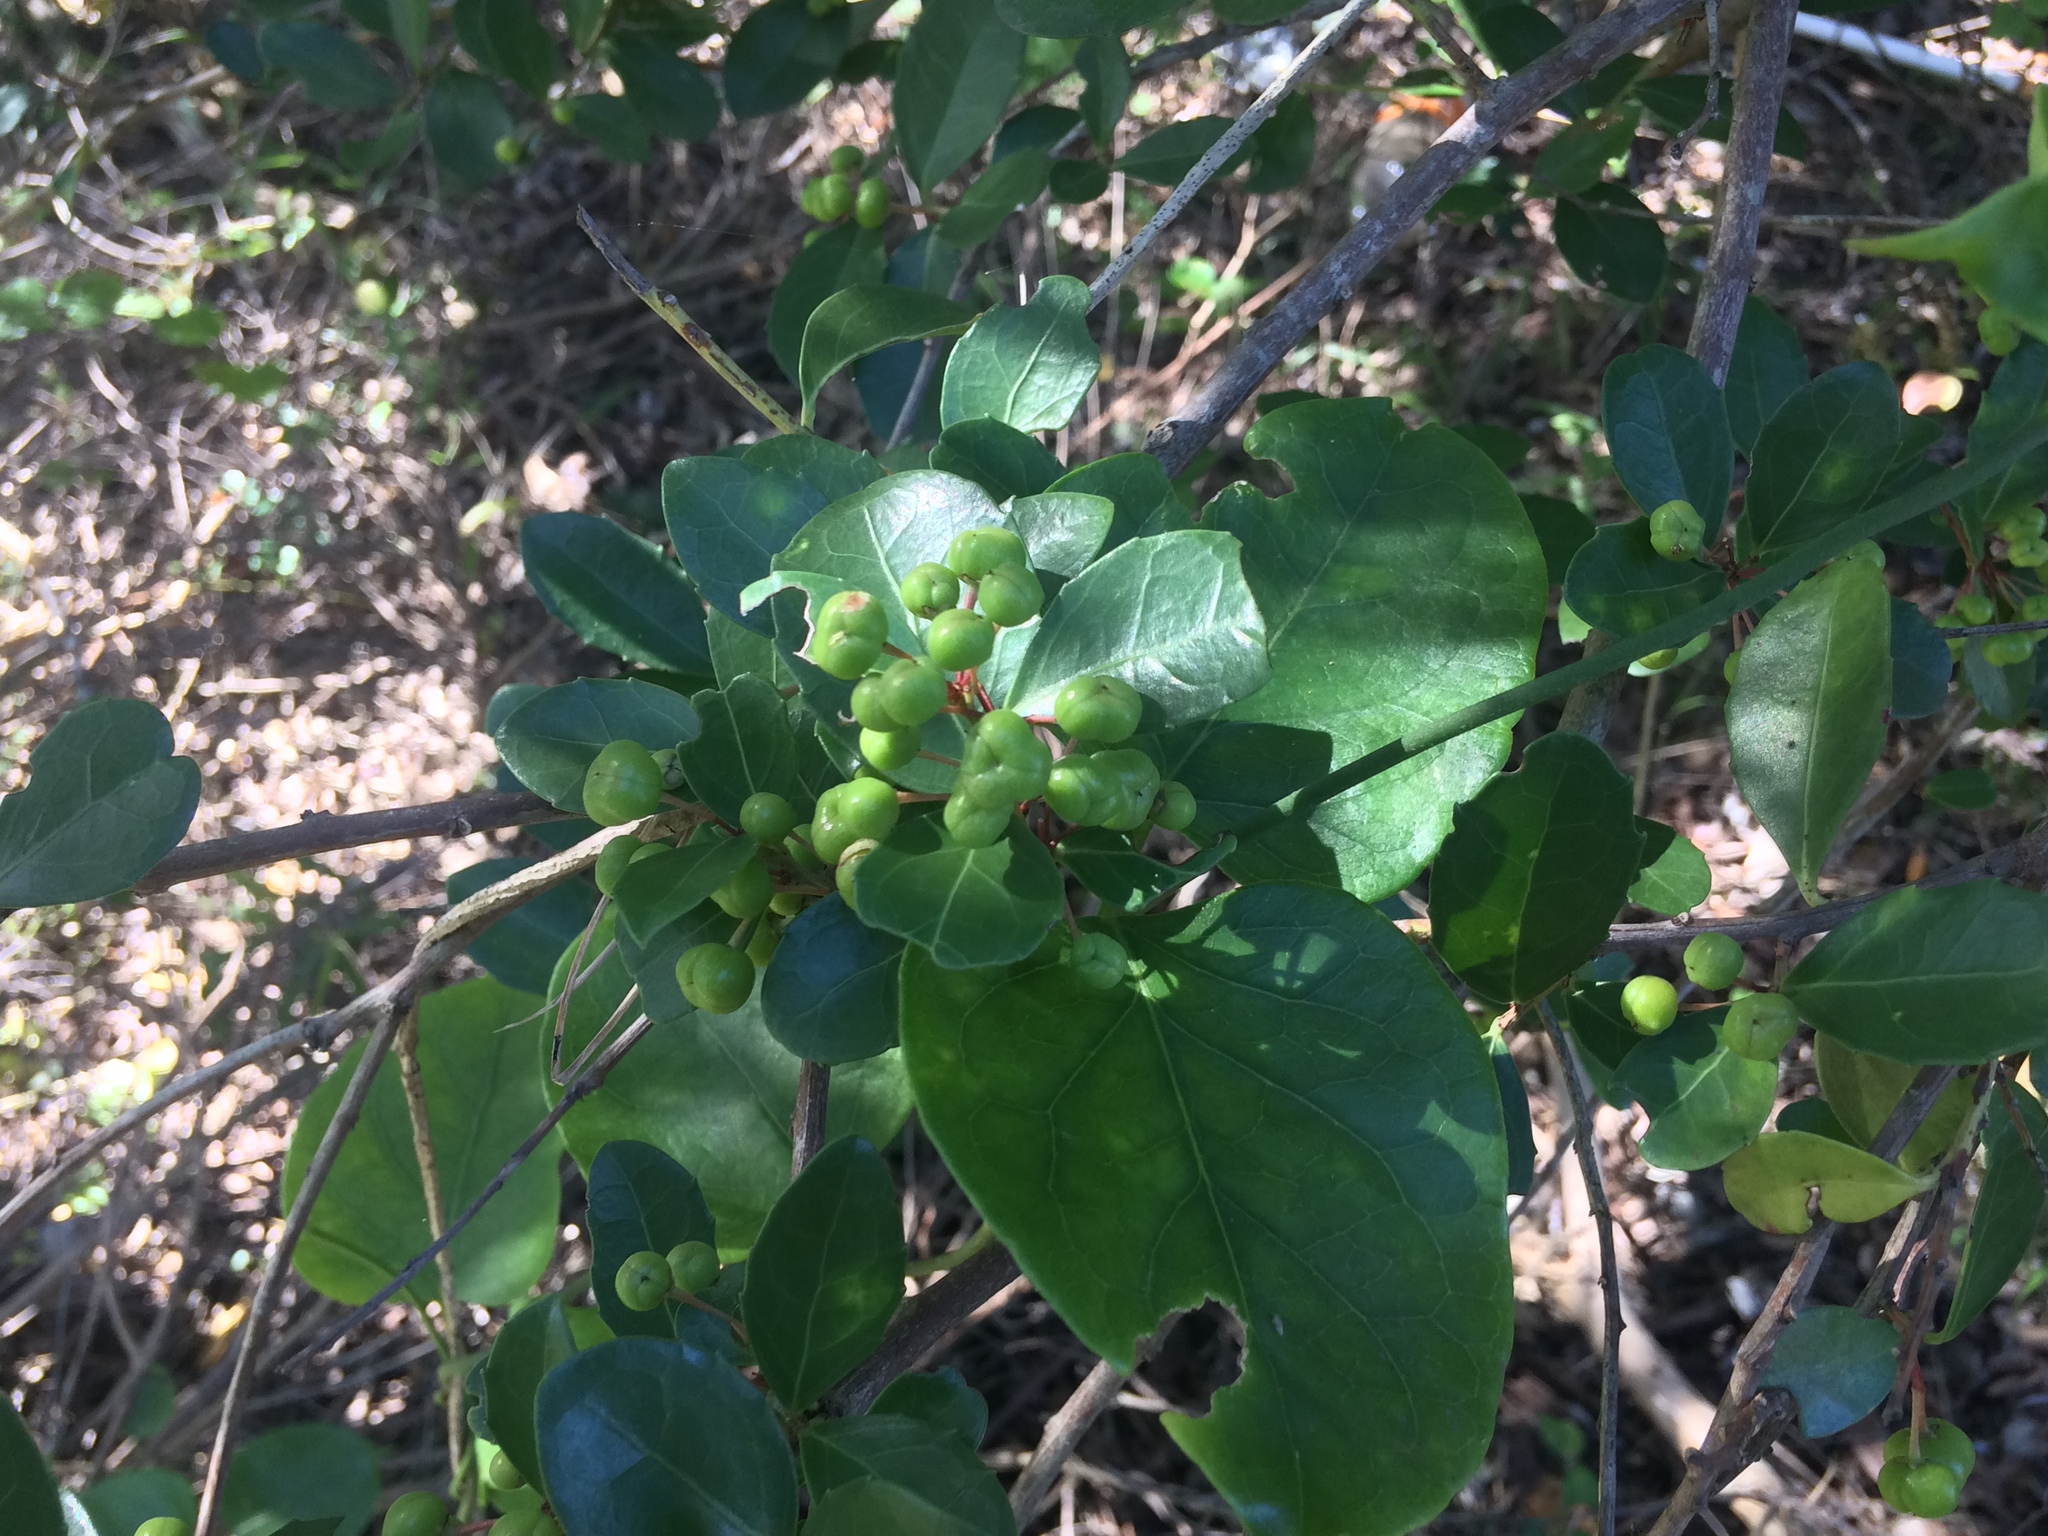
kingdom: Plantae
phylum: Tracheophyta
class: Magnoliopsida
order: Celastrales
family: Celastraceae
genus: Gymnosporia
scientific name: Gymnosporia procumbens
